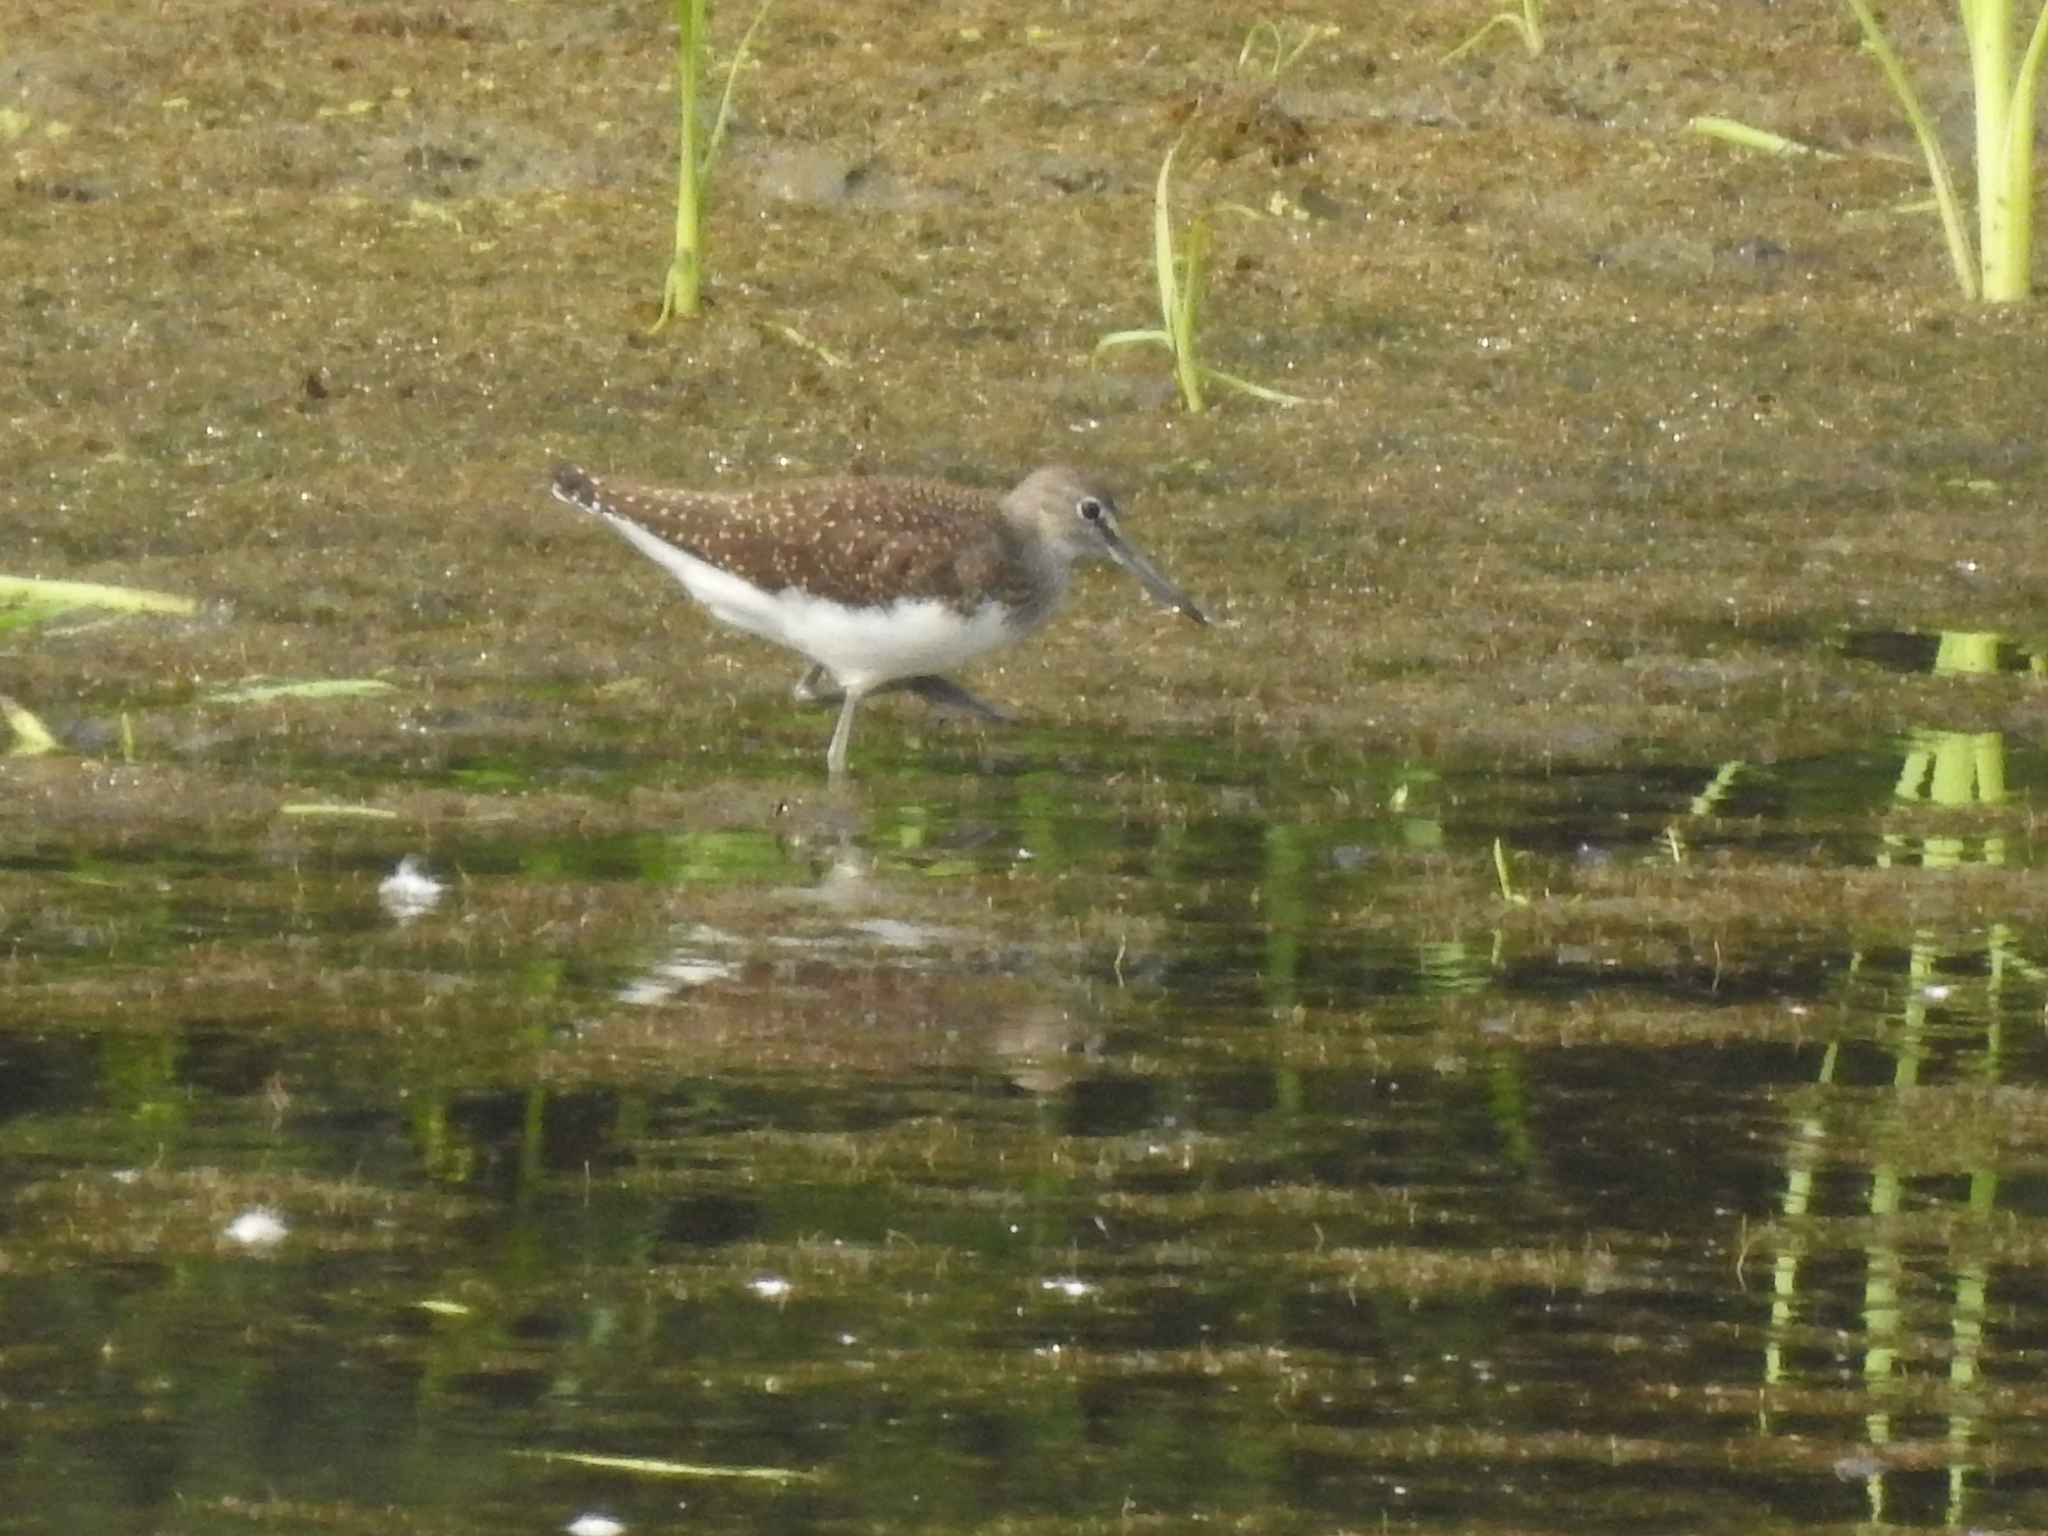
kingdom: Animalia
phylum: Chordata
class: Aves
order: Charadriiformes
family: Scolopacidae
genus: Tringa
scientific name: Tringa ochropus
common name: Green sandpiper
